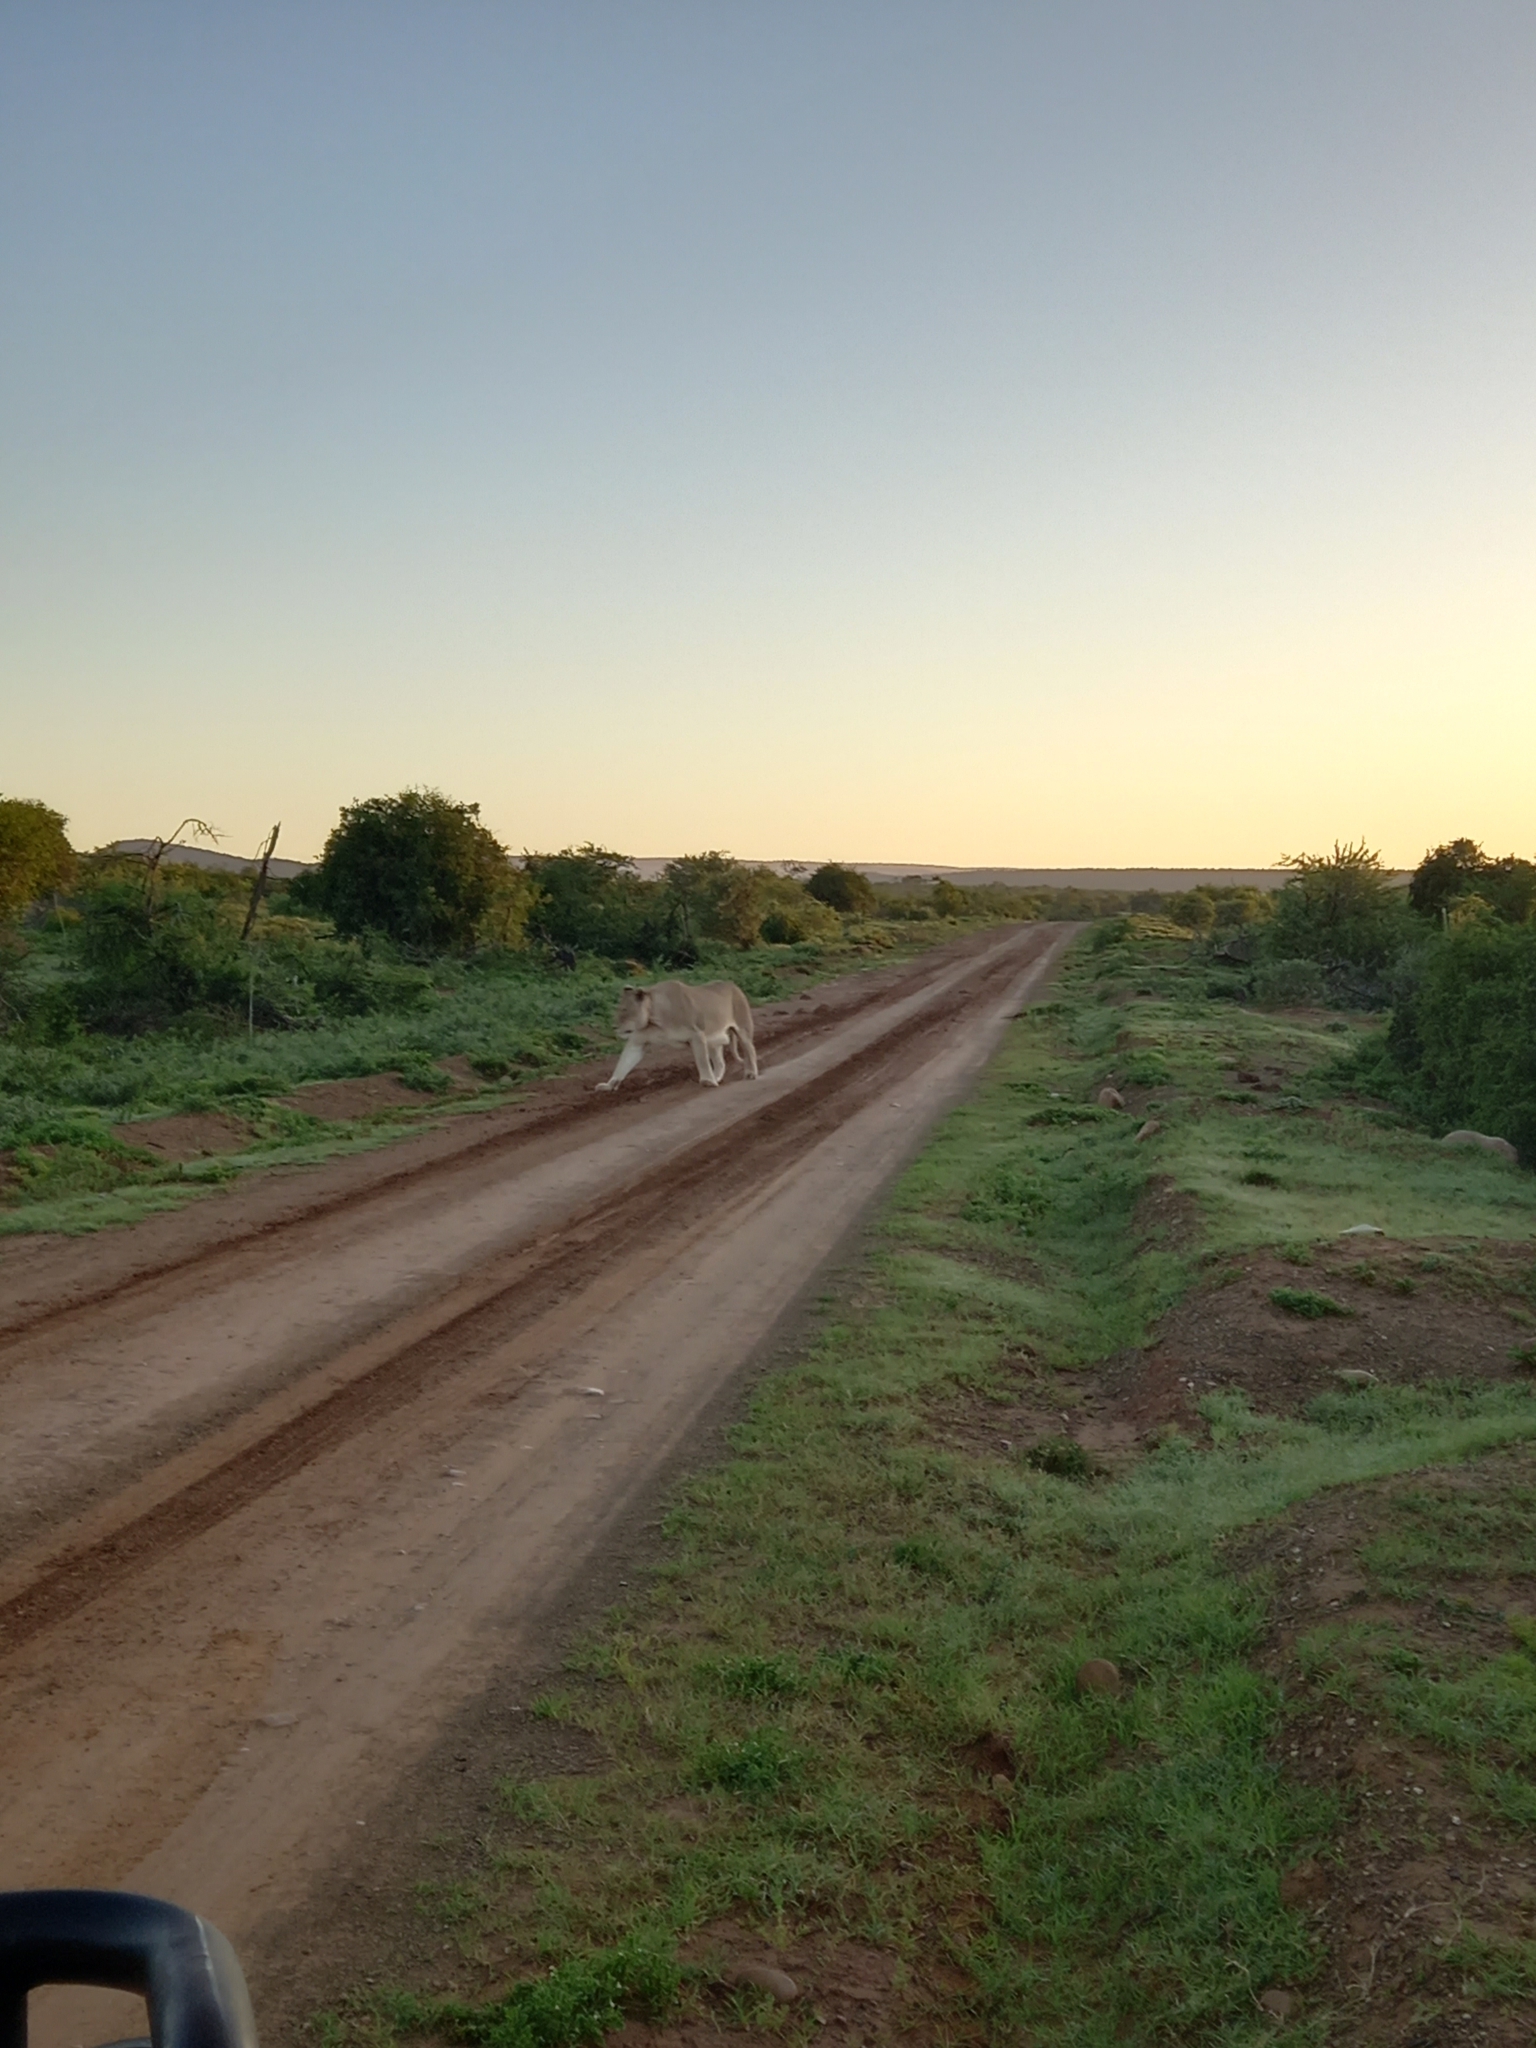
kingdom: Animalia
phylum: Chordata
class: Mammalia
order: Carnivora
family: Felidae
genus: Panthera
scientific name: Panthera leo
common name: Lion
